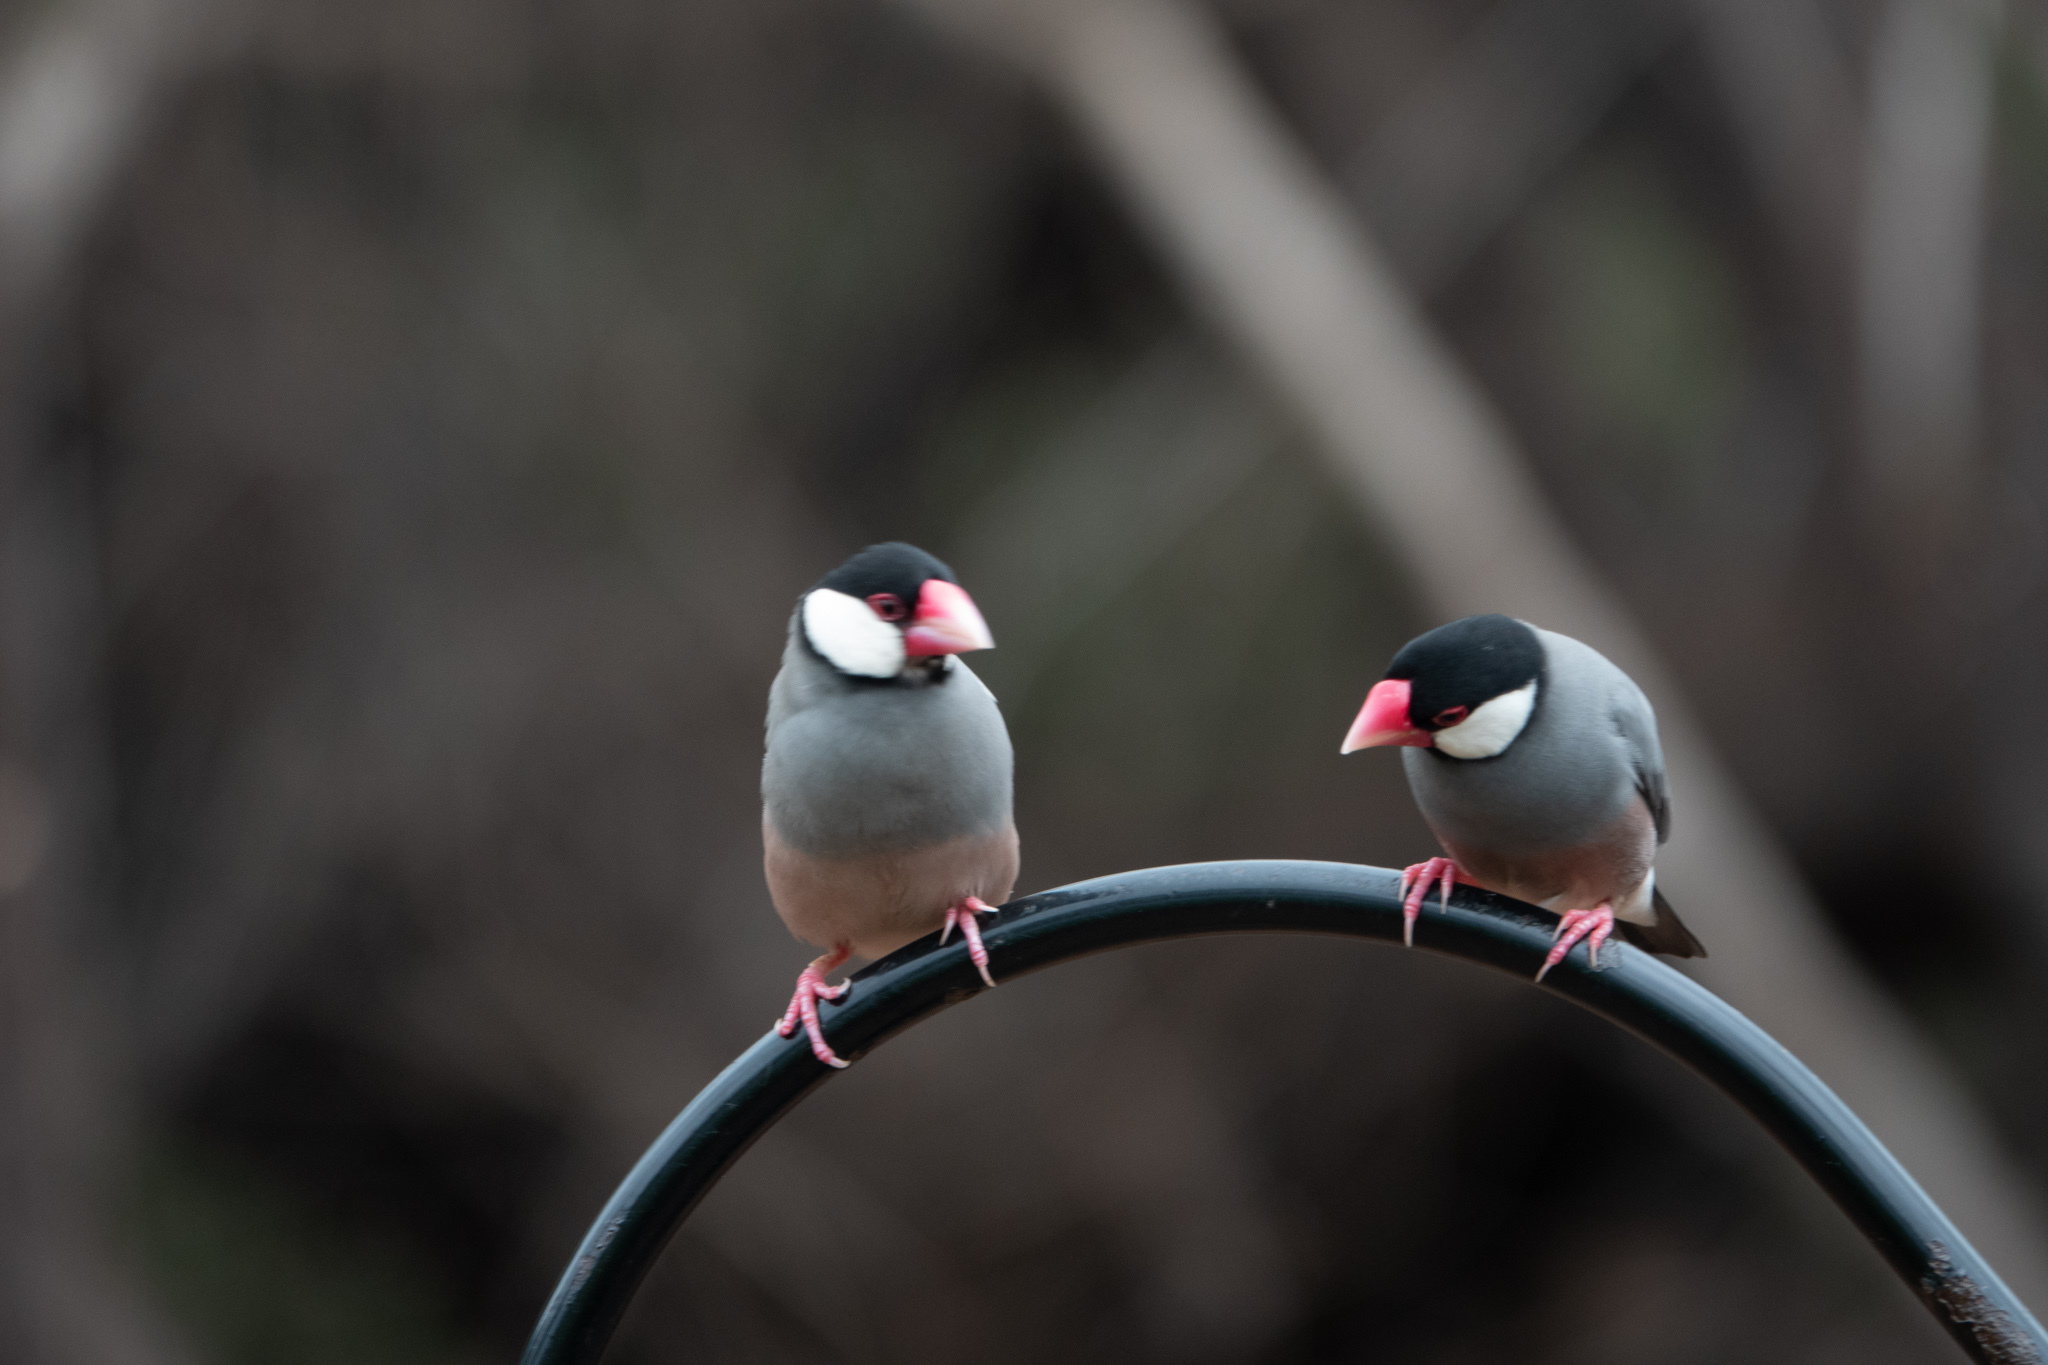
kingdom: Animalia
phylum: Chordata
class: Aves
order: Passeriformes
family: Estrildidae
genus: Lonchura
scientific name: Lonchura oryzivora
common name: Java sparrow
